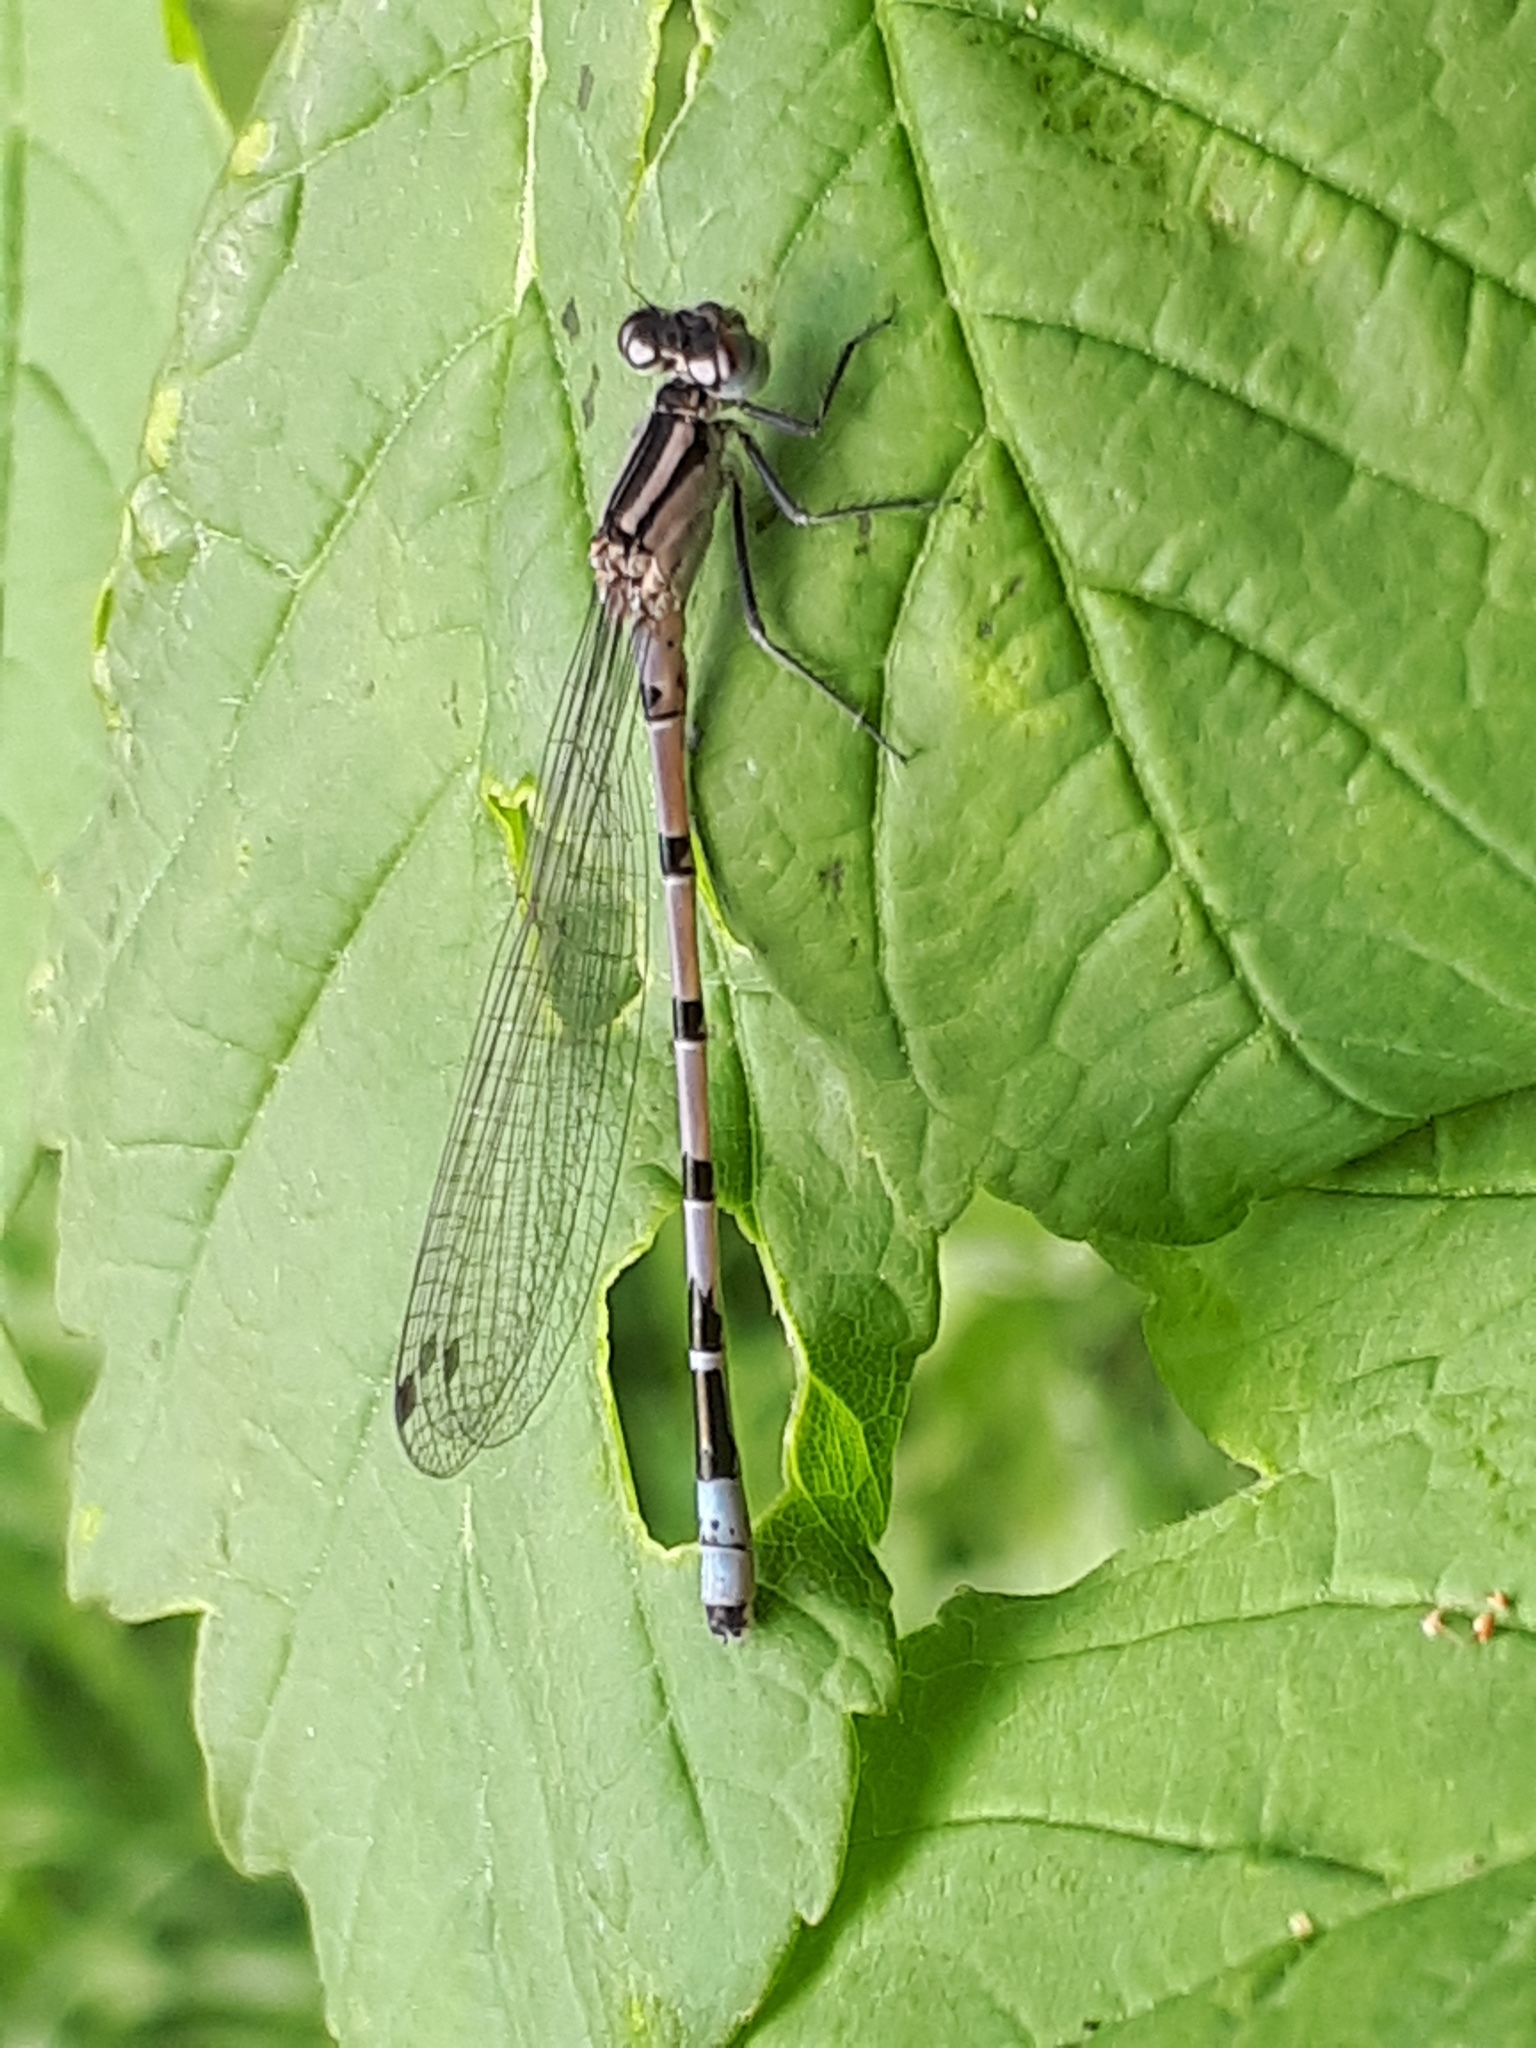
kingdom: Animalia
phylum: Arthropoda
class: Insecta
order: Odonata
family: Coenagrionidae
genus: Enallagma
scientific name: Enallagma cyathigerum
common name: Common blue damselfly
